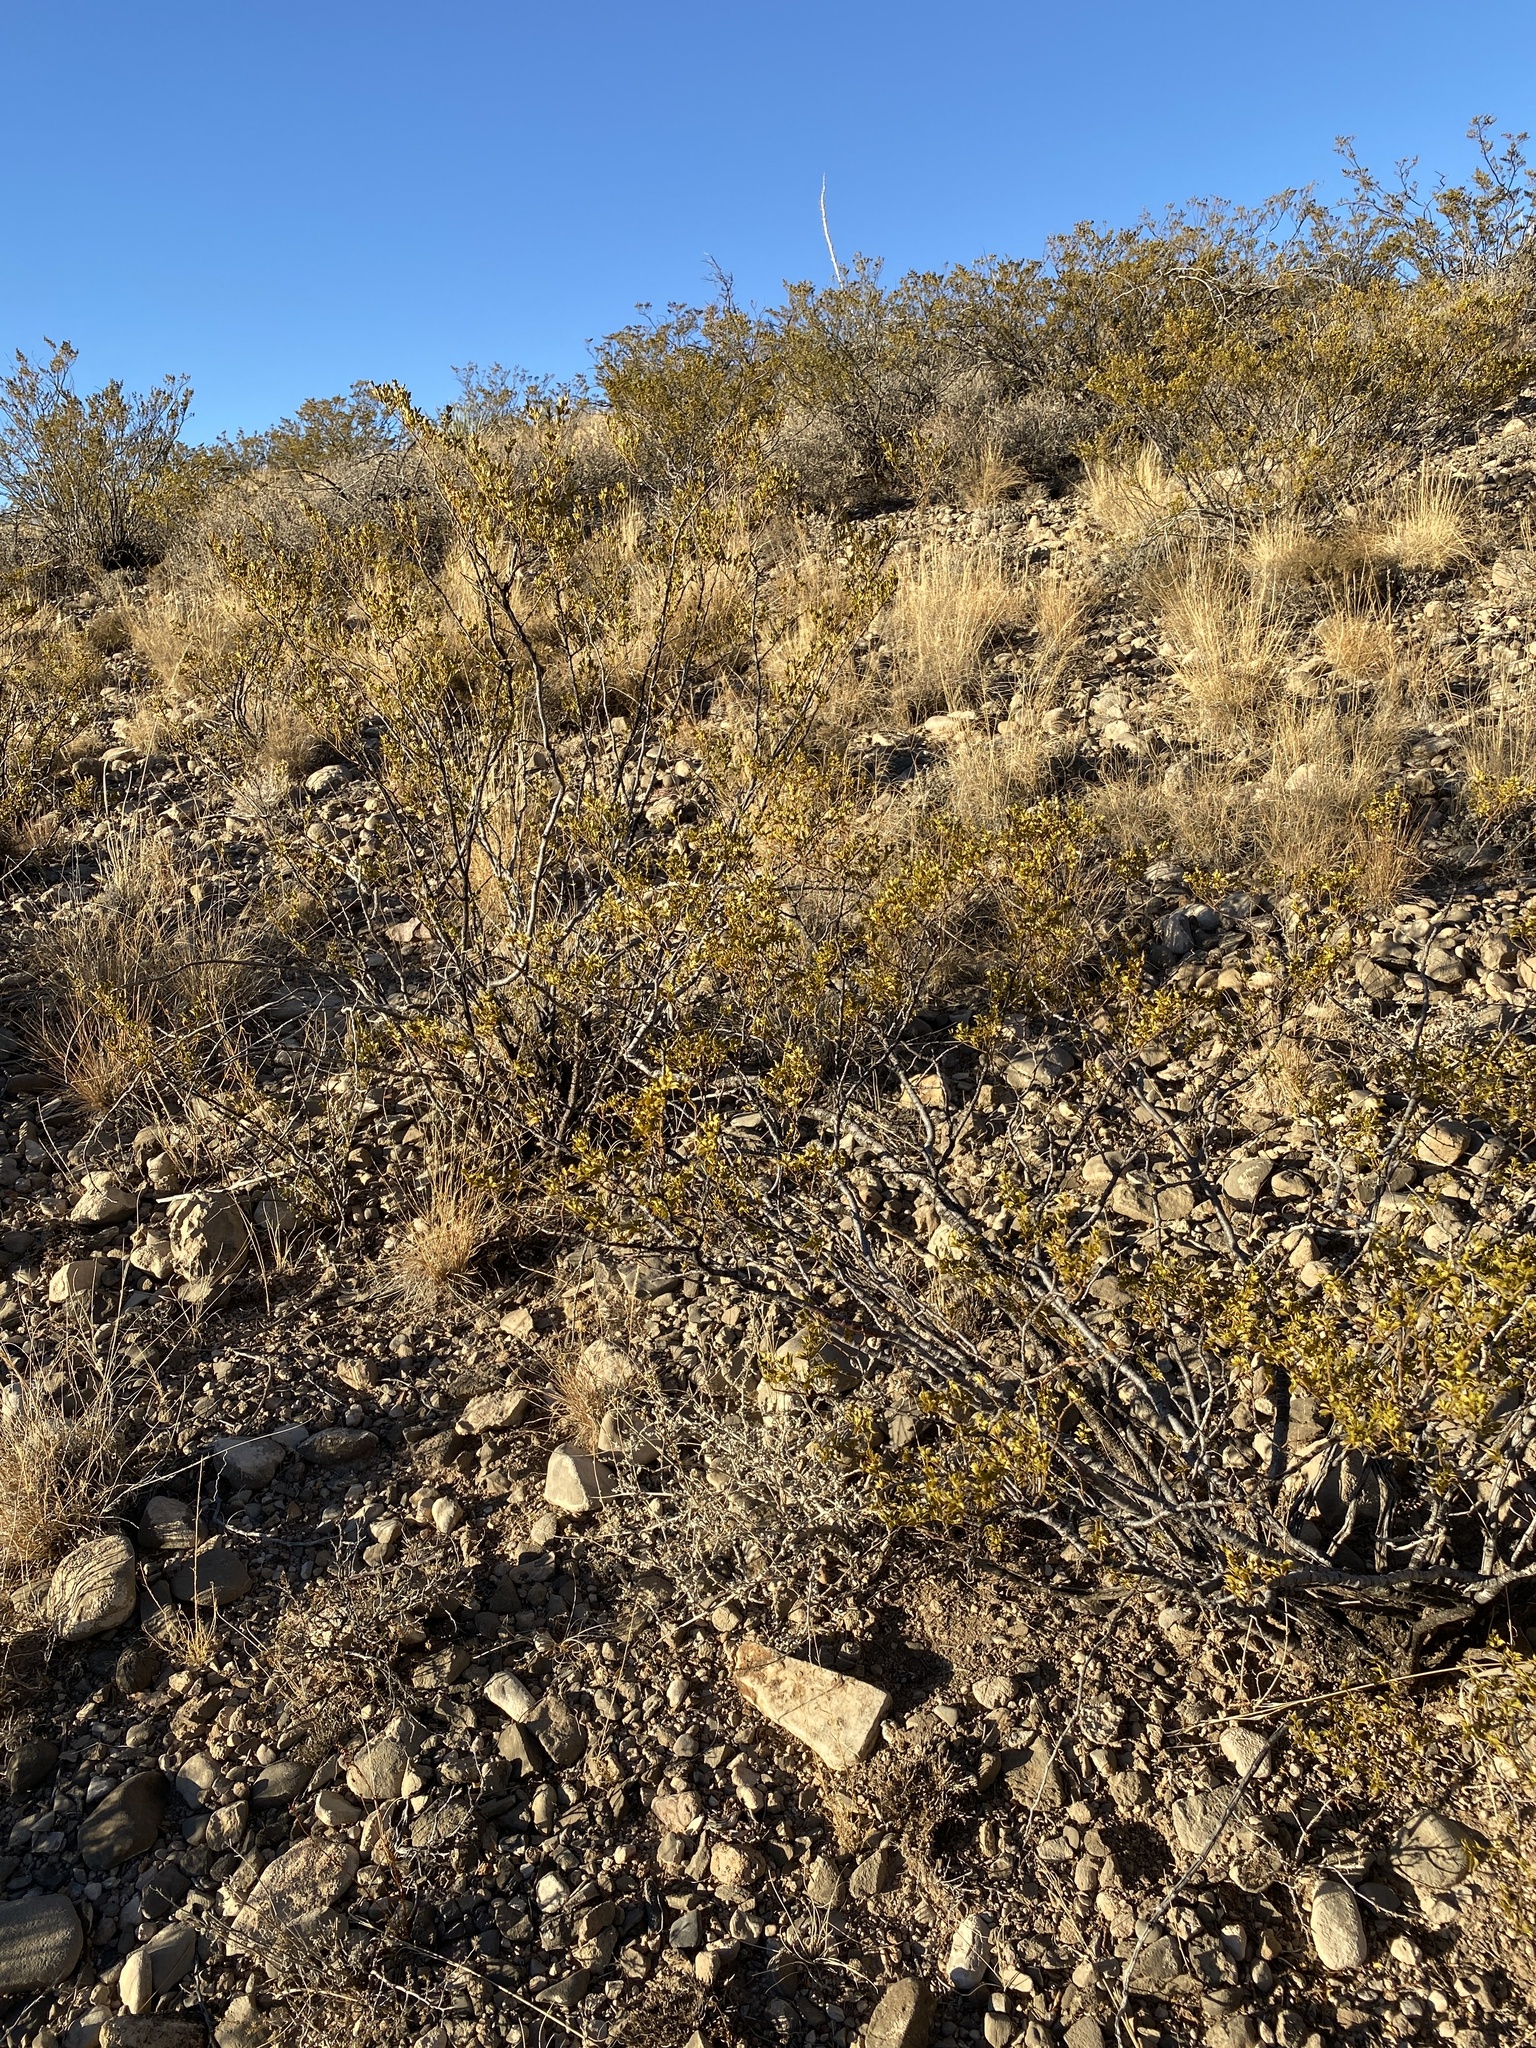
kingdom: Plantae
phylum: Tracheophyta
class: Magnoliopsida
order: Zygophyllales
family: Zygophyllaceae
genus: Larrea
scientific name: Larrea tridentata
